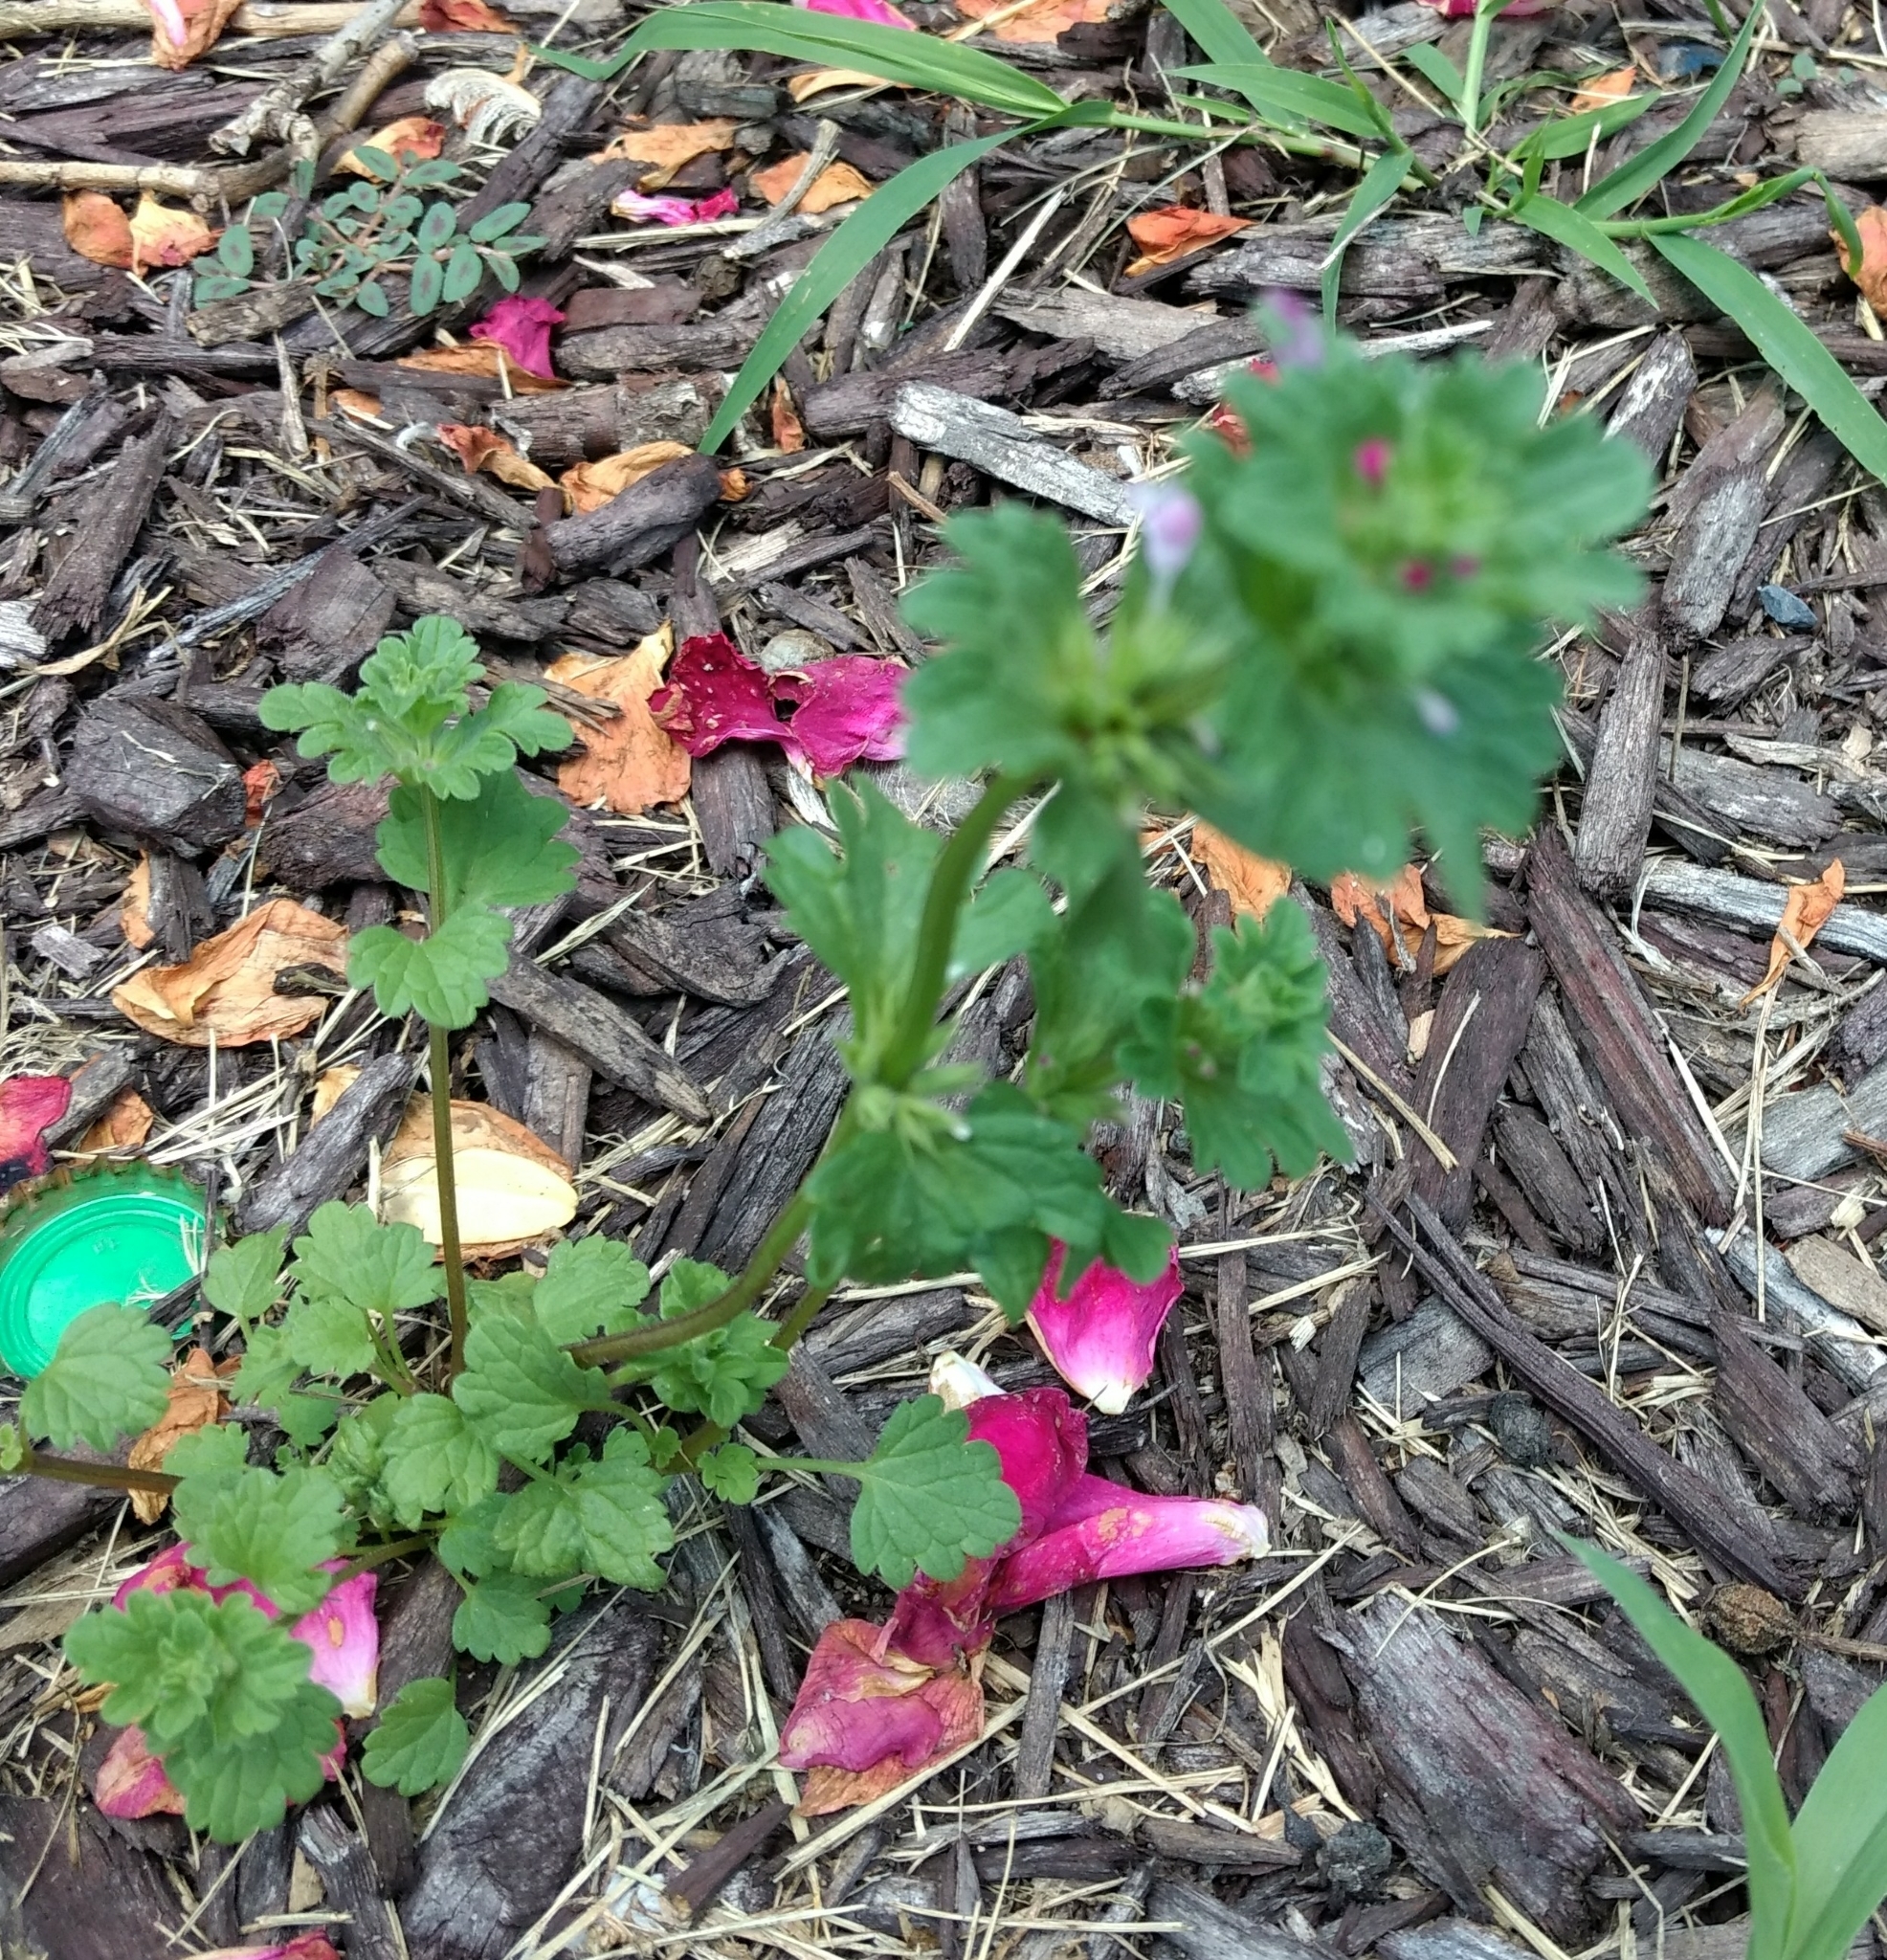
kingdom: Plantae
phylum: Tracheophyta
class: Magnoliopsida
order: Lamiales
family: Lamiaceae
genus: Lamium
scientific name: Lamium amplexicaule
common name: Henbit dead-nettle
